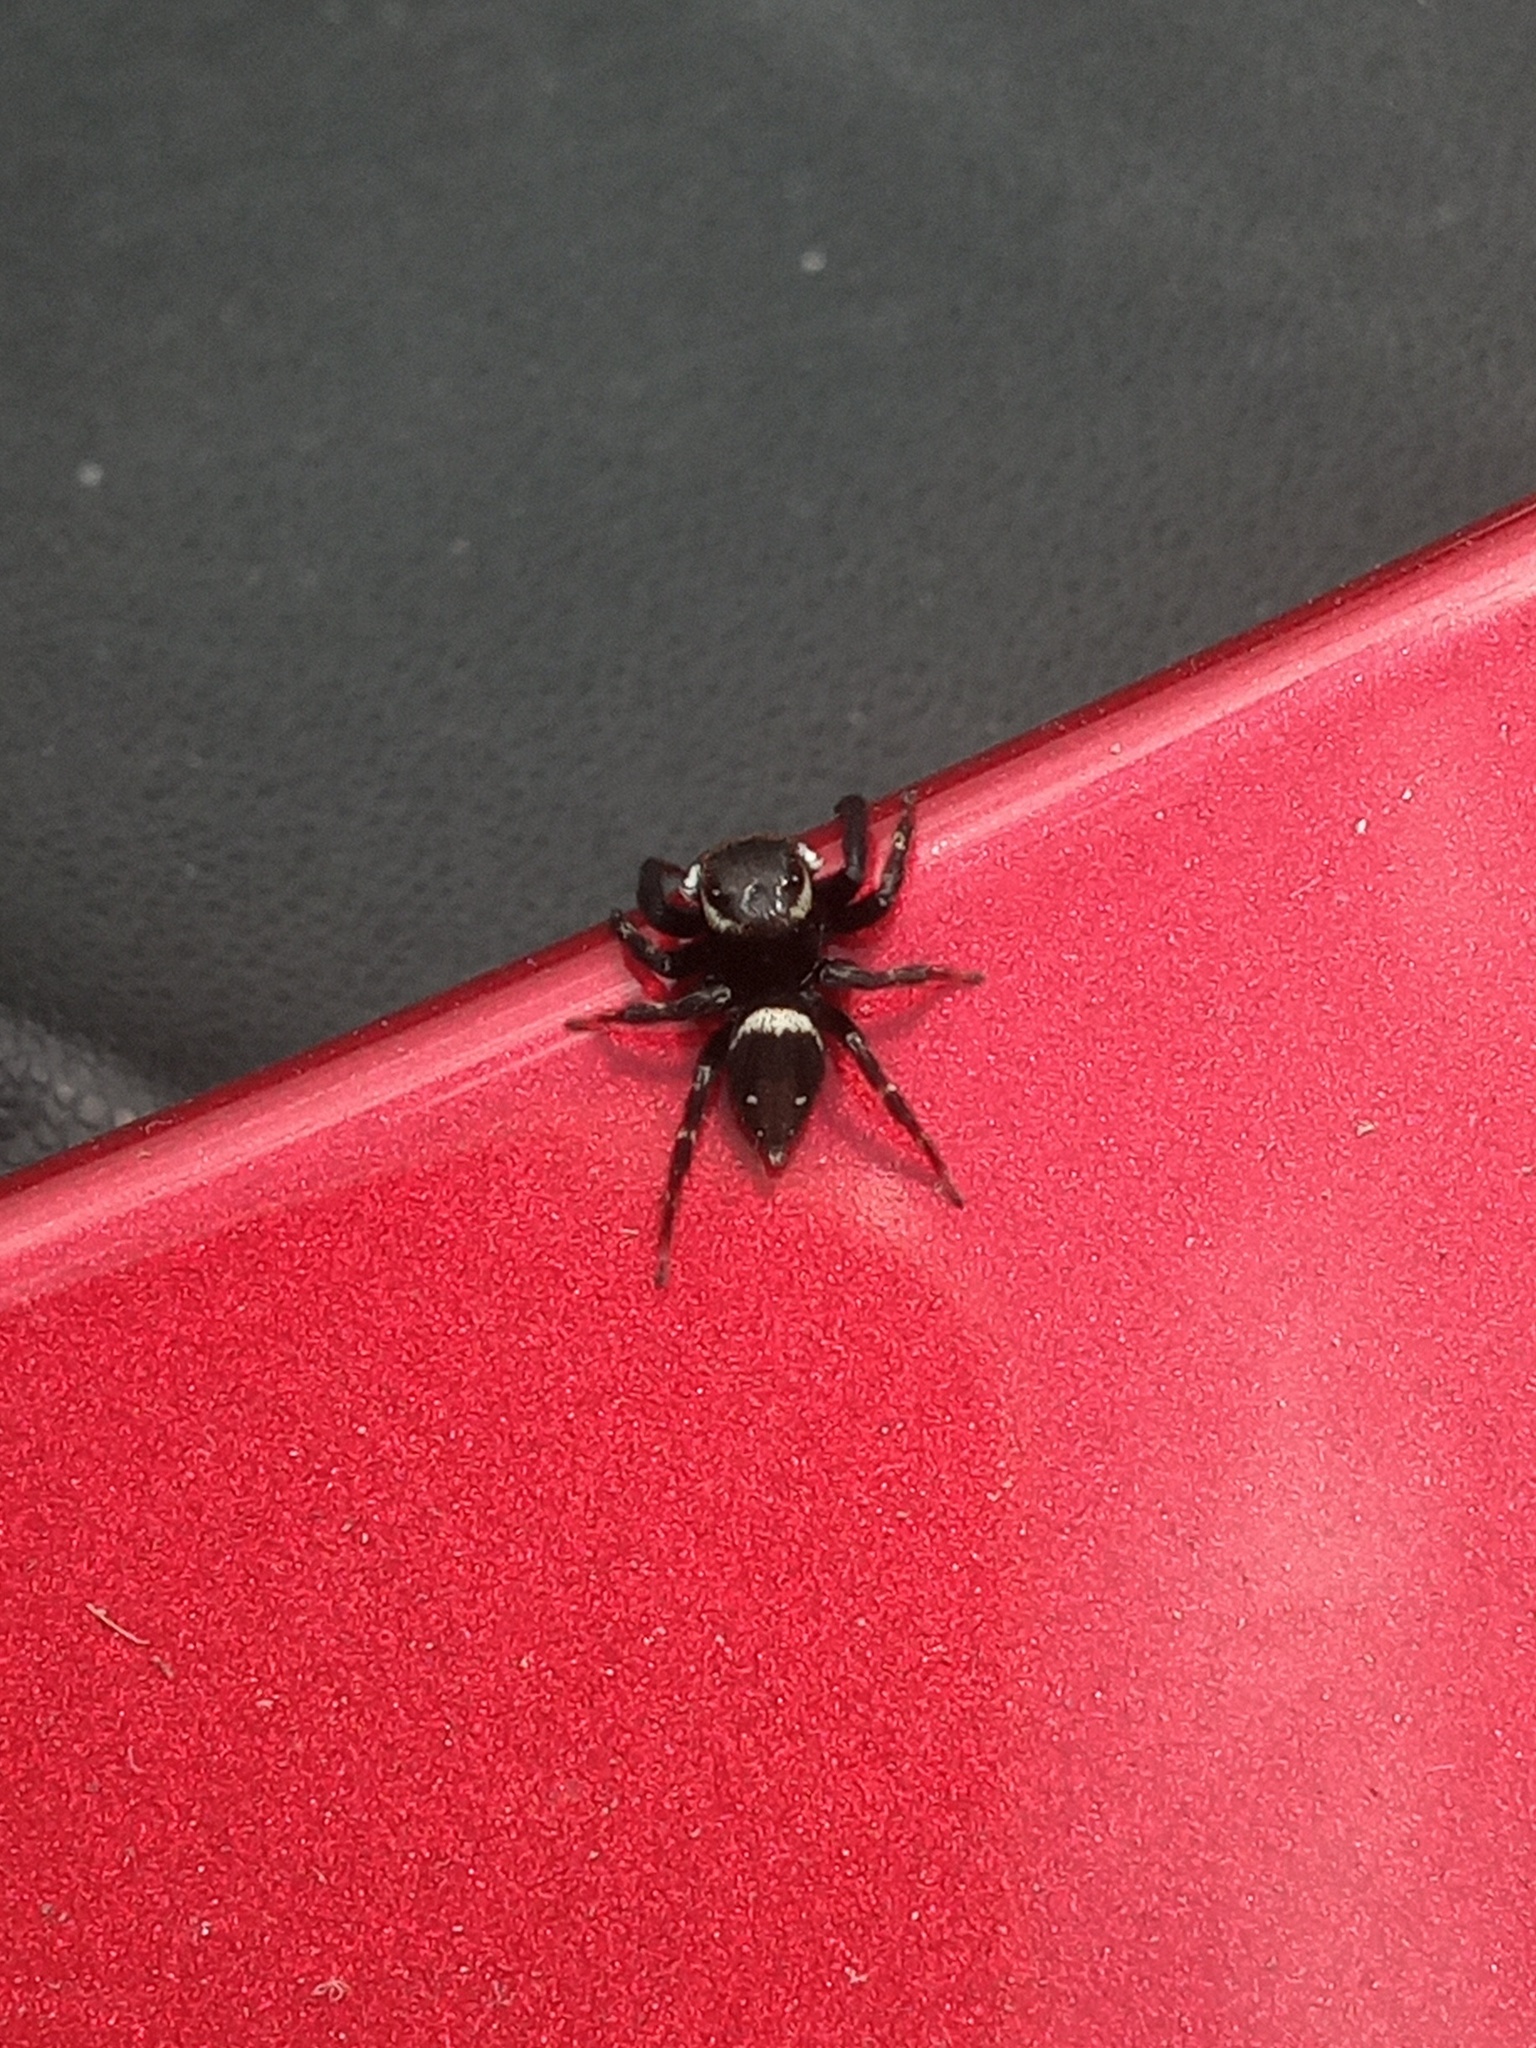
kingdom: Animalia
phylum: Arthropoda
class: Arachnida
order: Araneae
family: Salticidae
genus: Hasarius
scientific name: Hasarius adansoni
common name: Jumping spider
